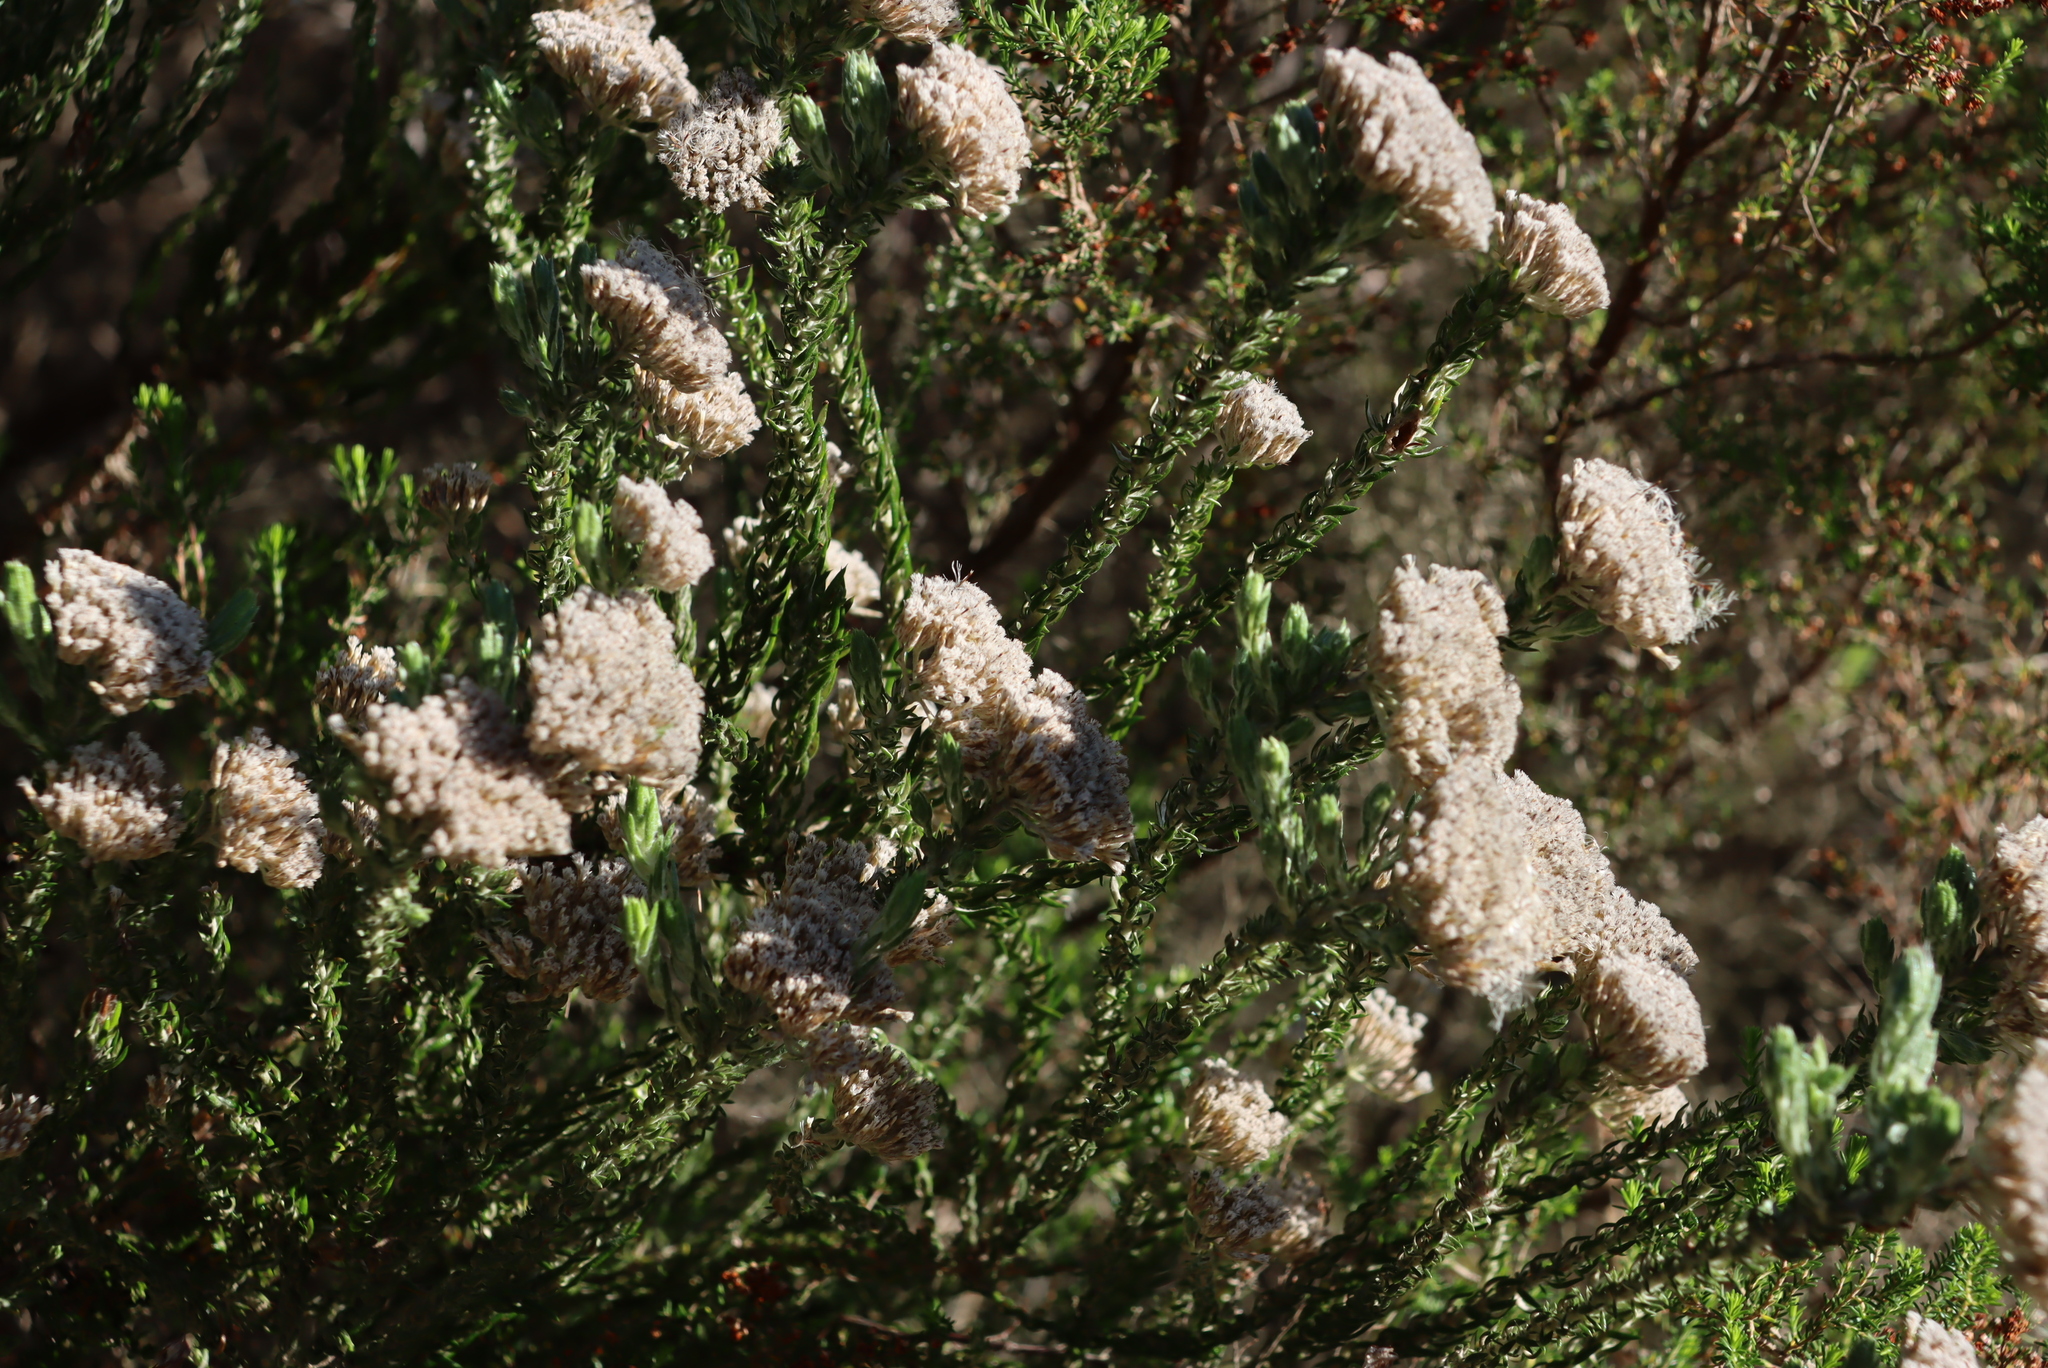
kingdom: Plantae
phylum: Tracheophyta
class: Magnoliopsida
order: Asterales
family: Asteraceae
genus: Metalasia
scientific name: Metalasia pungens
